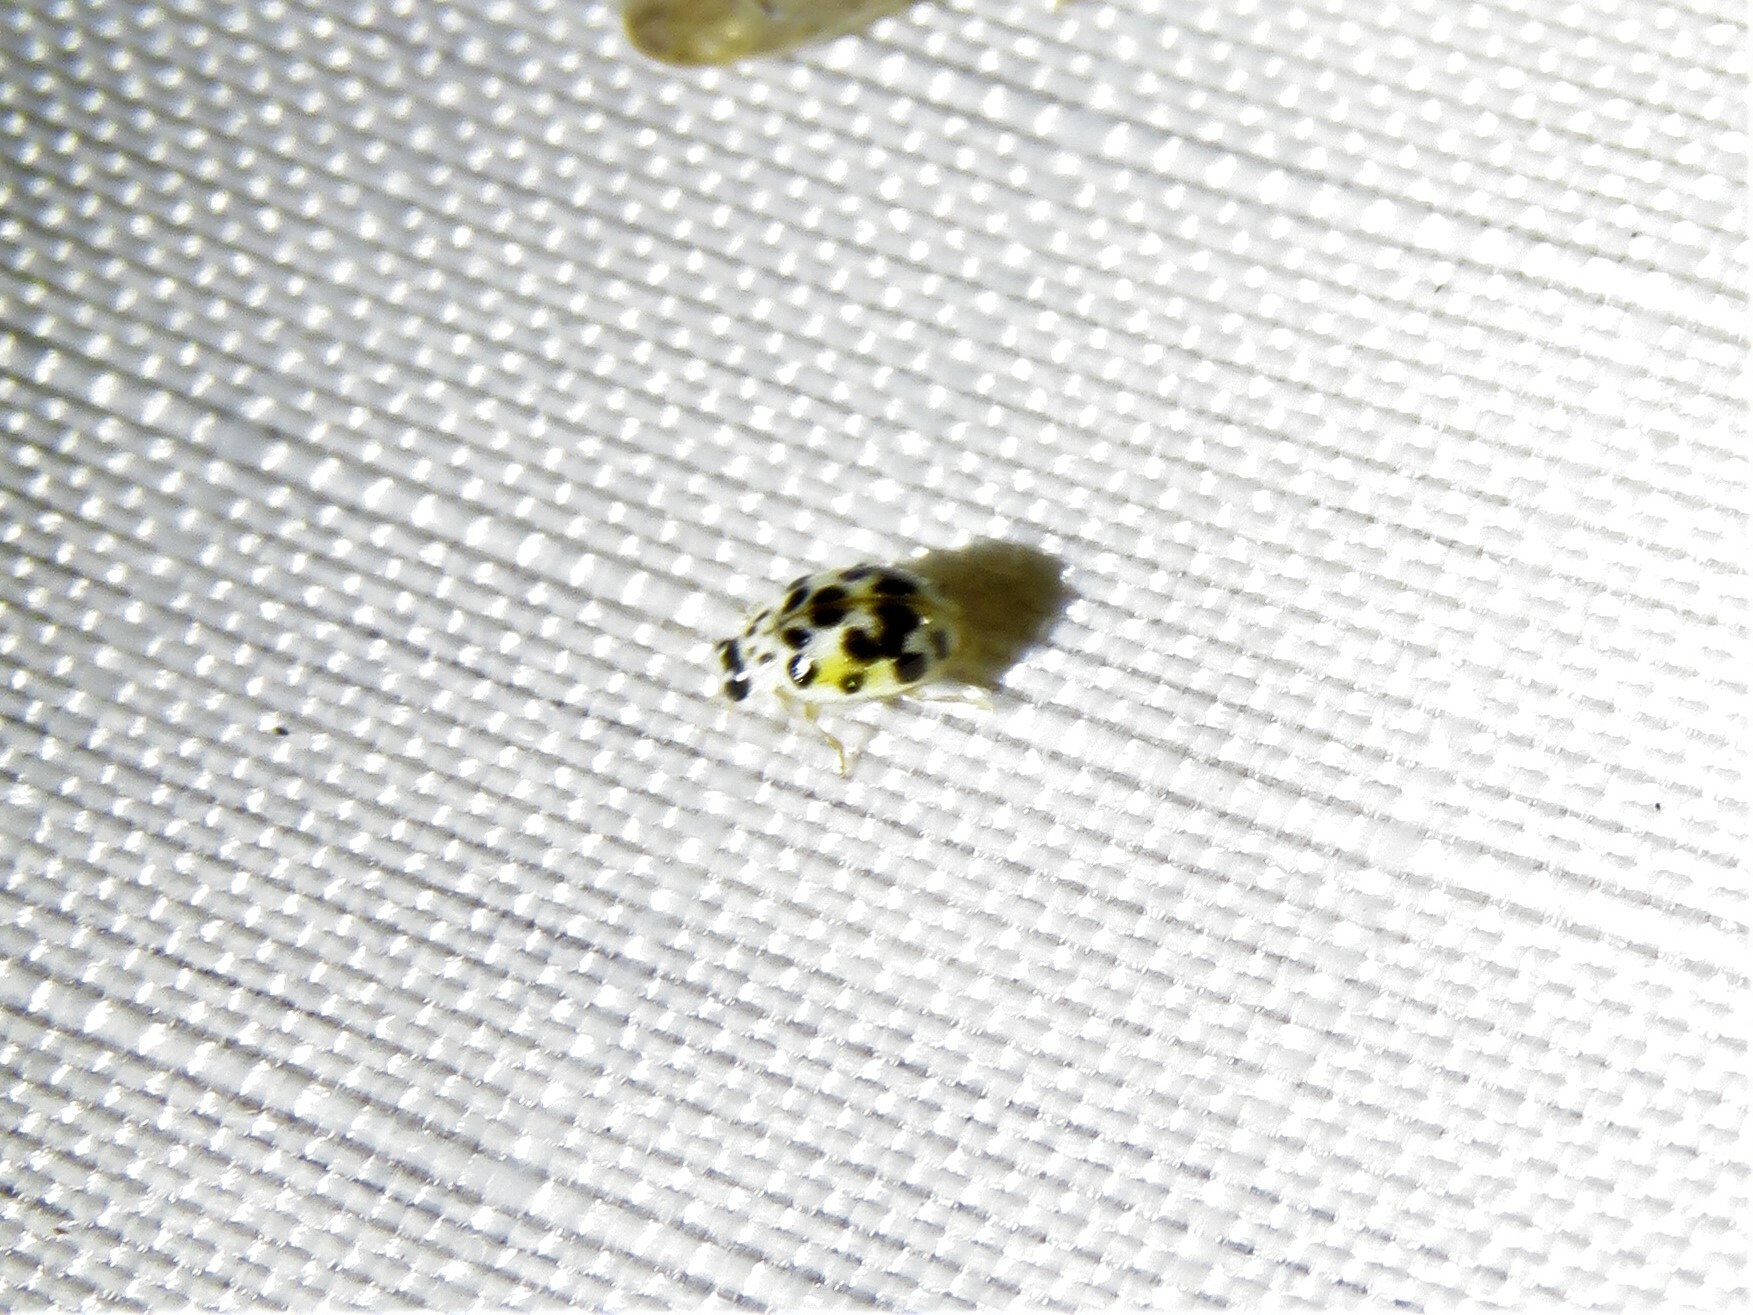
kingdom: Animalia
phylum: Arthropoda
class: Insecta
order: Coleoptera
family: Coccinellidae
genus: Psyllobora
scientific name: Psyllobora vigintimaculata
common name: Ladybird beetle
